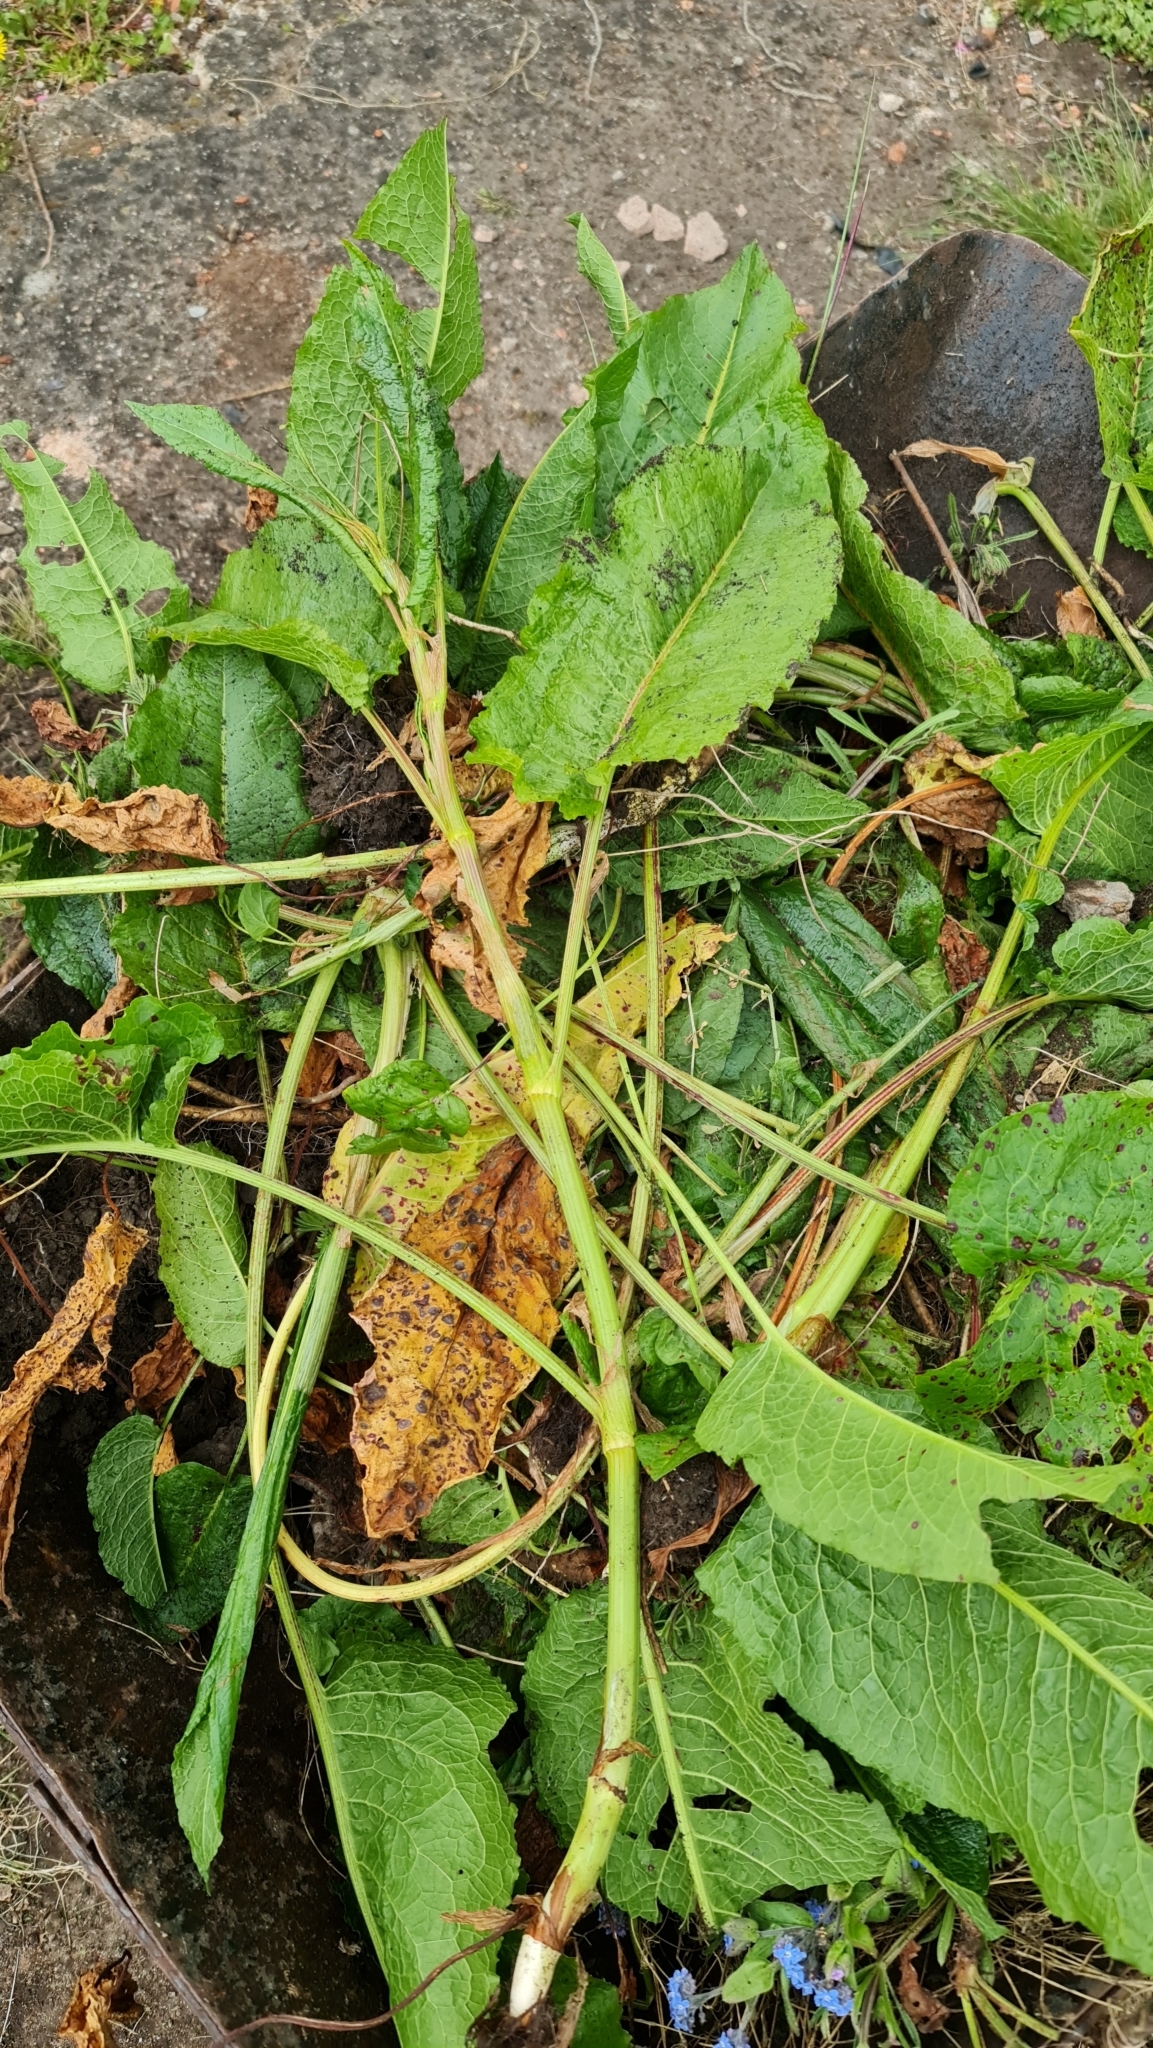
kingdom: Plantae
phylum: Tracheophyta
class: Magnoliopsida
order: Caryophyllales
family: Polygonaceae
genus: Rumex
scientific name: Rumex obtusifolius
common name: Bitter dock
